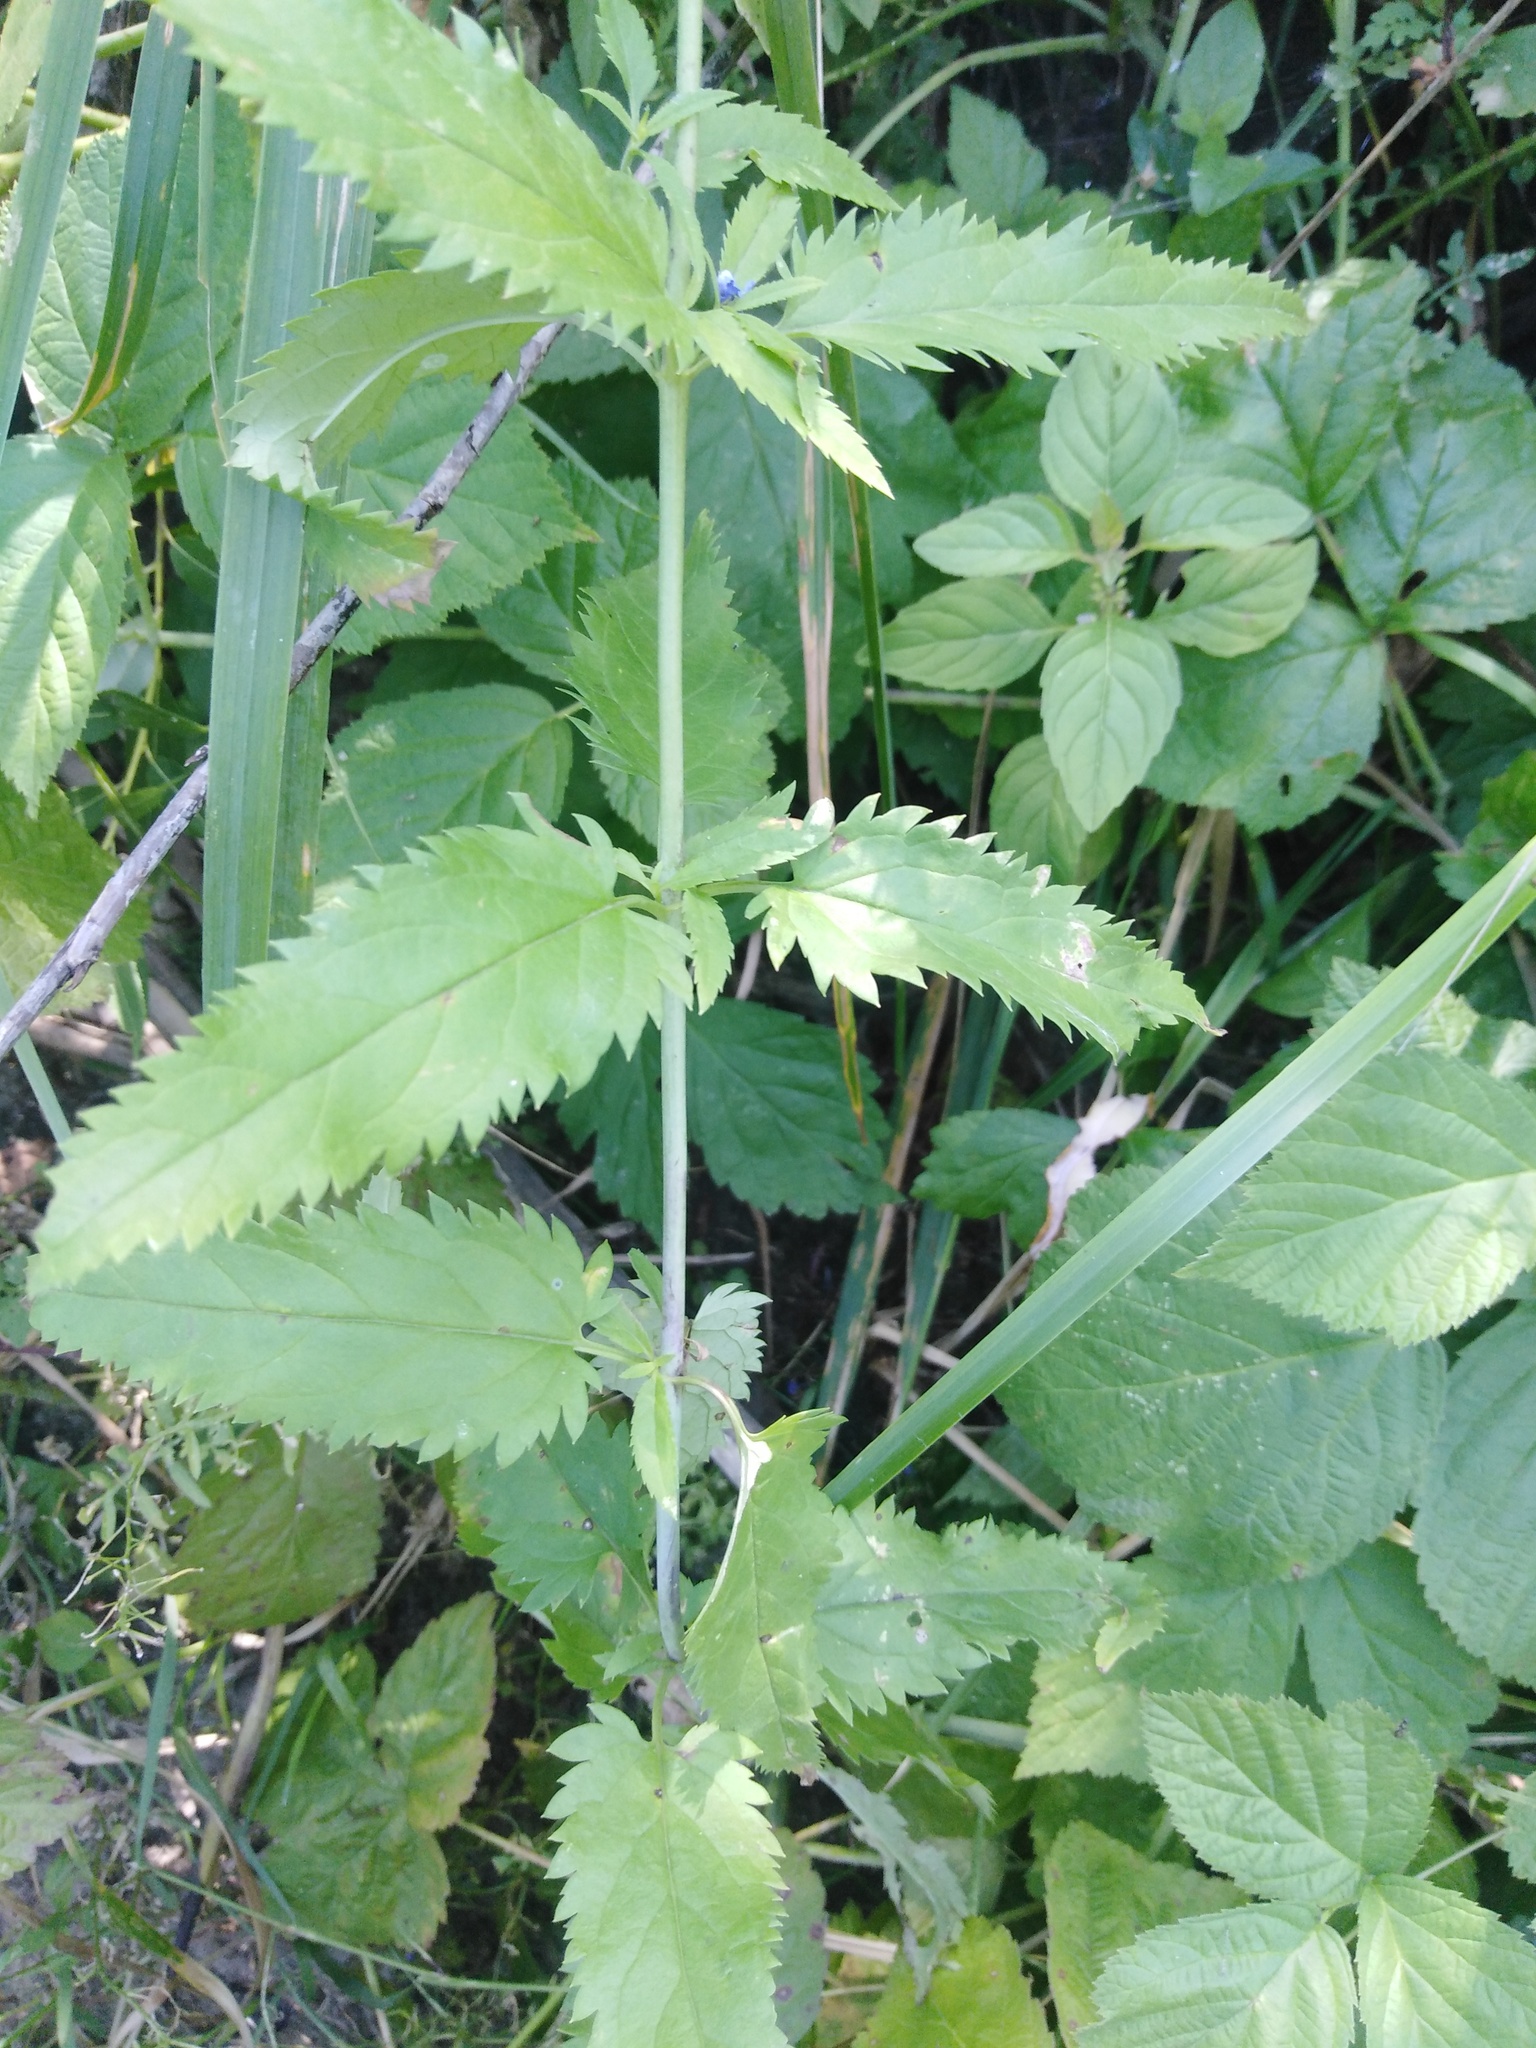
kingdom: Plantae
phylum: Tracheophyta
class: Magnoliopsida
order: Lamiales
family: Plantaginaceae
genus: Veronica
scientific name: Veronica longifolia
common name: Garden speedwell
